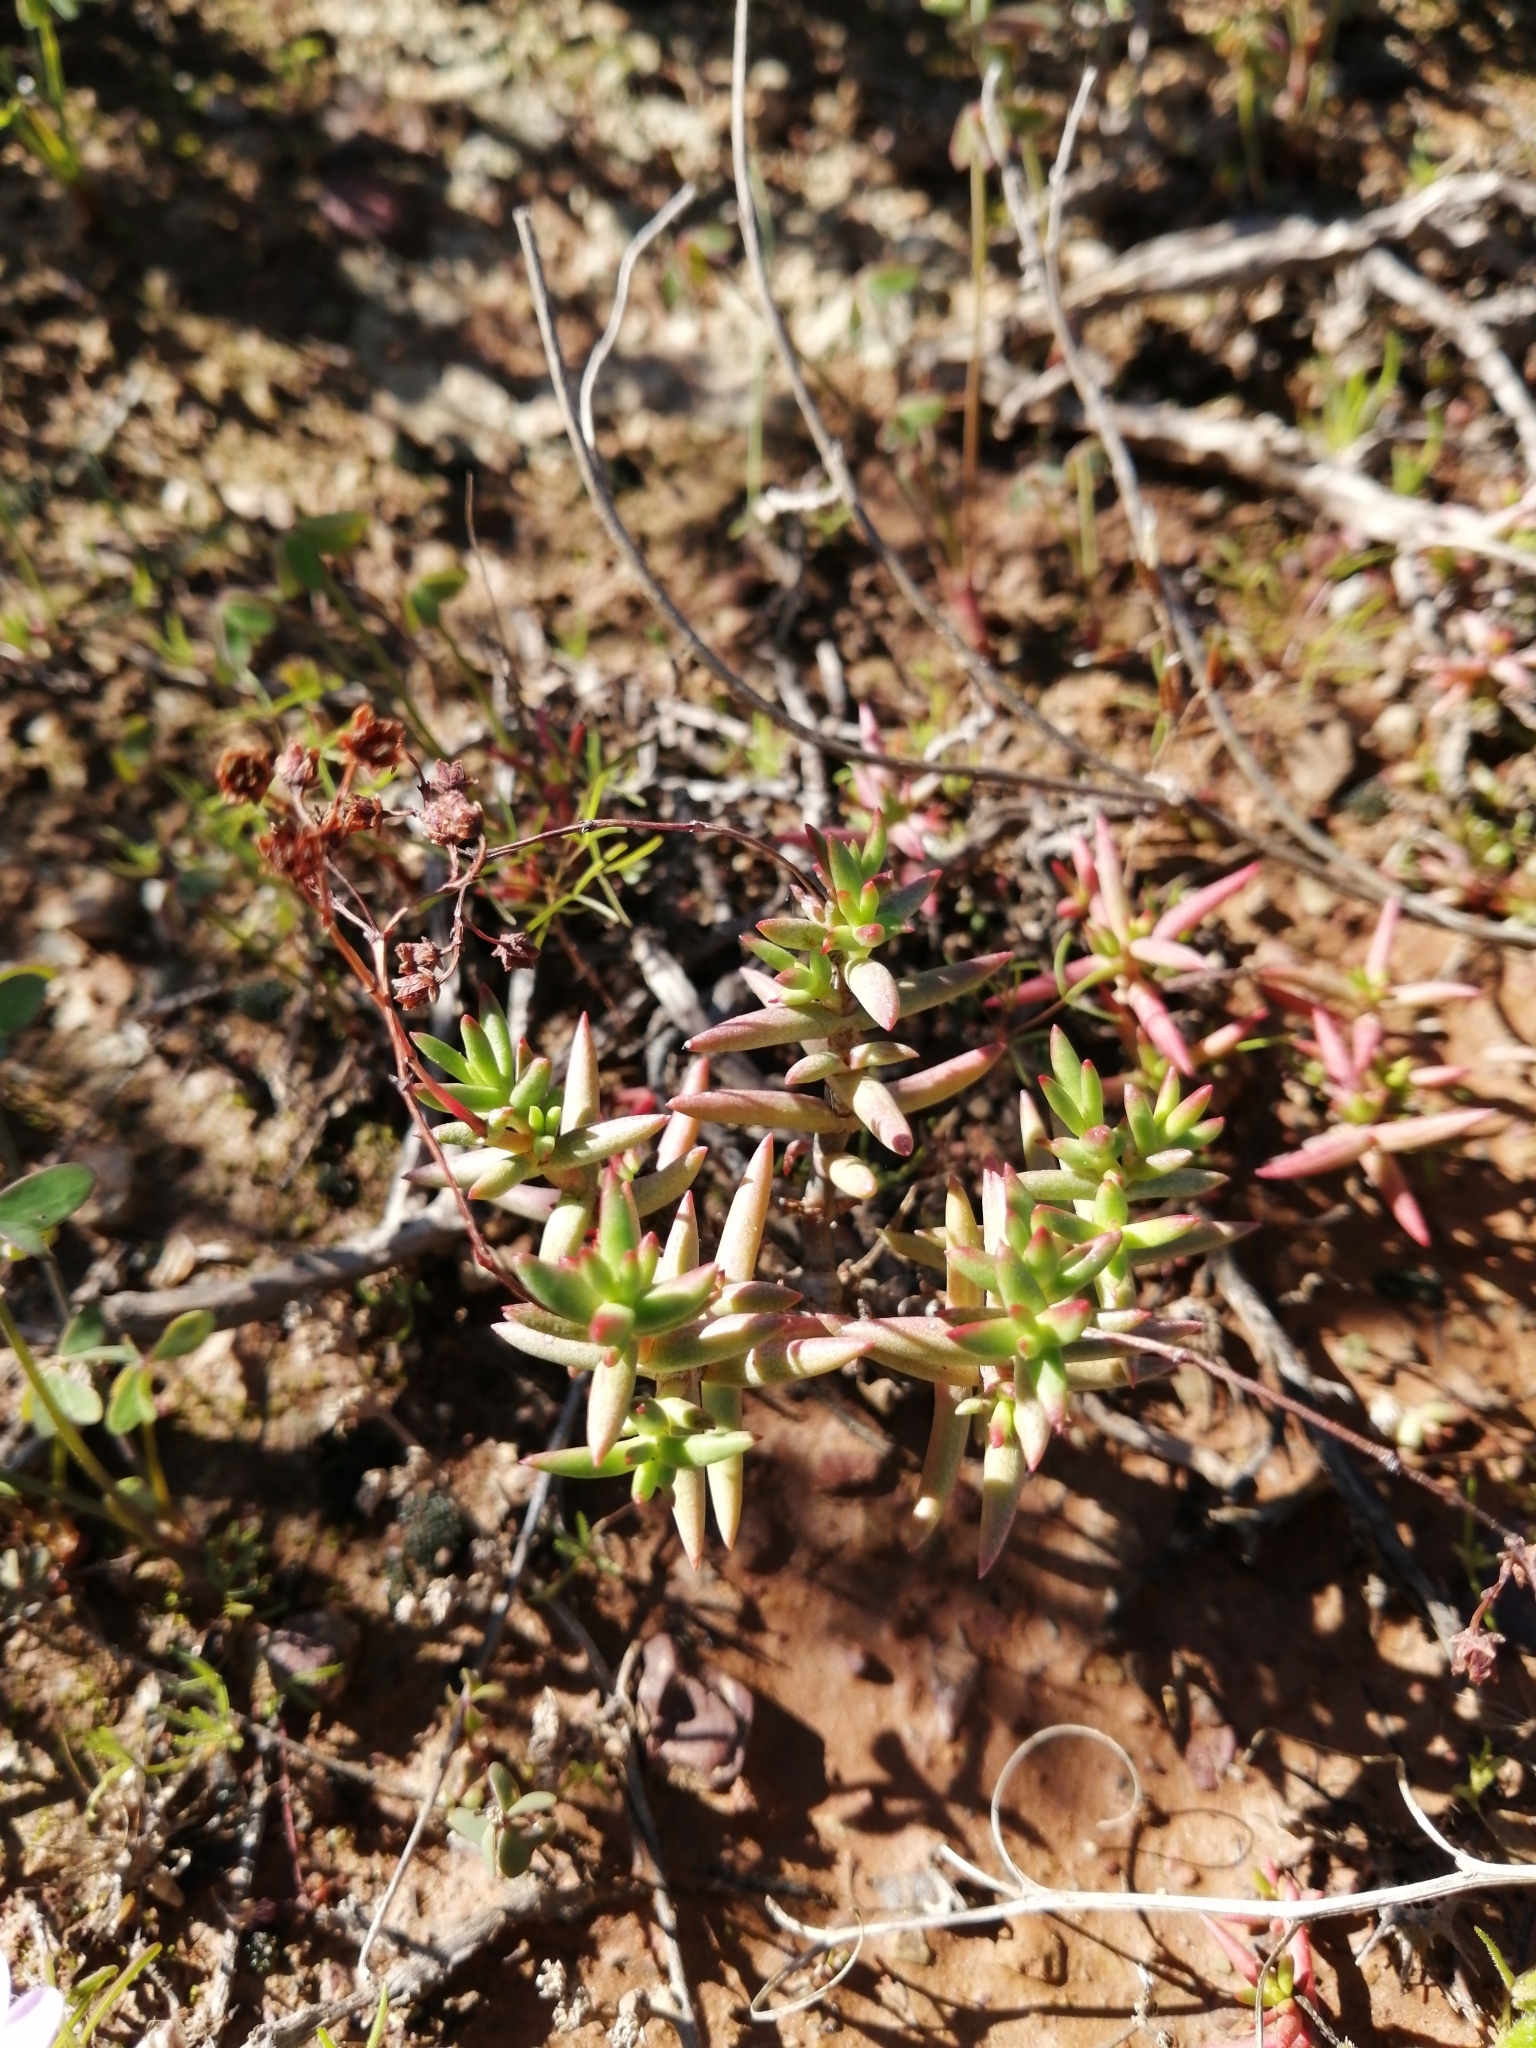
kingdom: Plantae
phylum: Tracheophyta
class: Magnoliopsida
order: Saxifragales
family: Crassulaceae
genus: Crassula
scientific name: Crassula tetragona
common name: Pygmyweed
